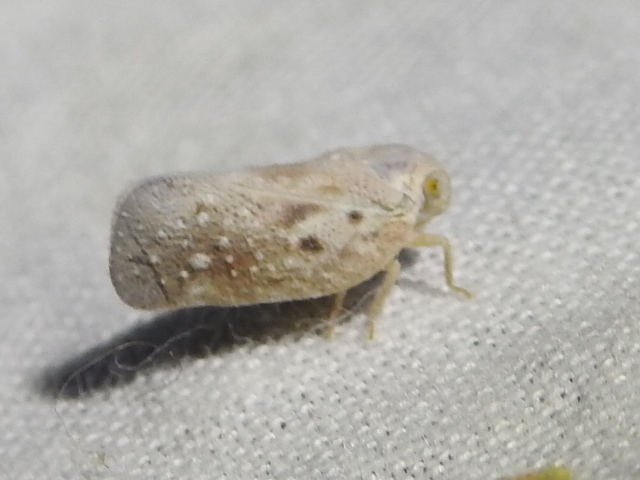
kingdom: Animalia
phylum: Arthropoda
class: Insecta
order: Hemiptera
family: Flatidae
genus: Metcalfa
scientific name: Metcalfa pruinosa
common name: Citrus flatid planthopper
